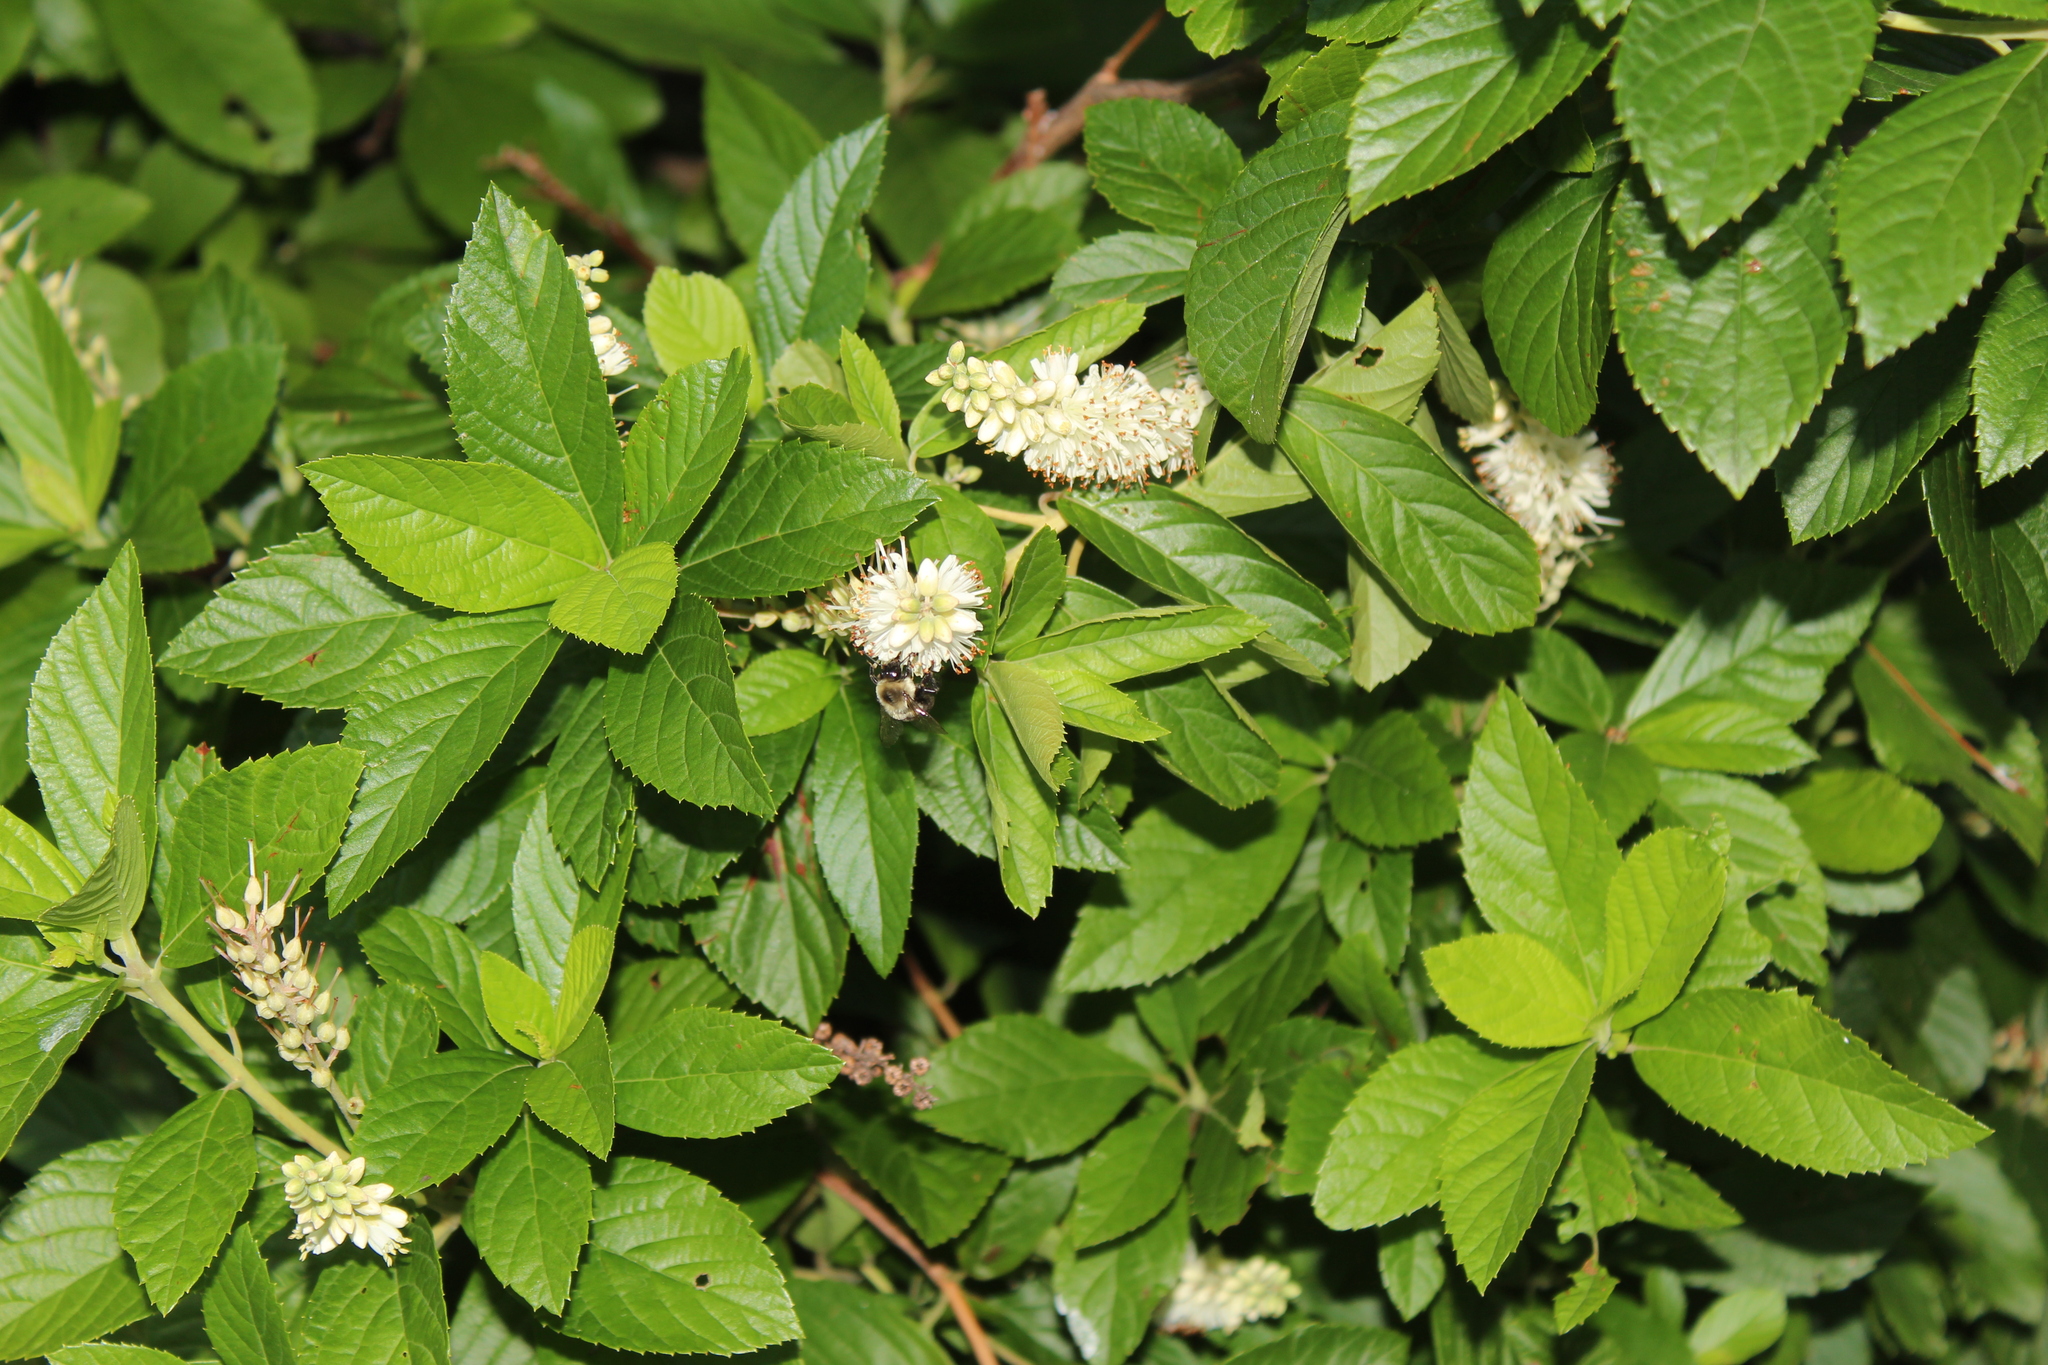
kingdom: Animalia
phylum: Arthropoda
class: Insecta
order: Hymenoptera
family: Apidae
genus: Bombus
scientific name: Bombus impatiens
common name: Common eastern bumble bee
